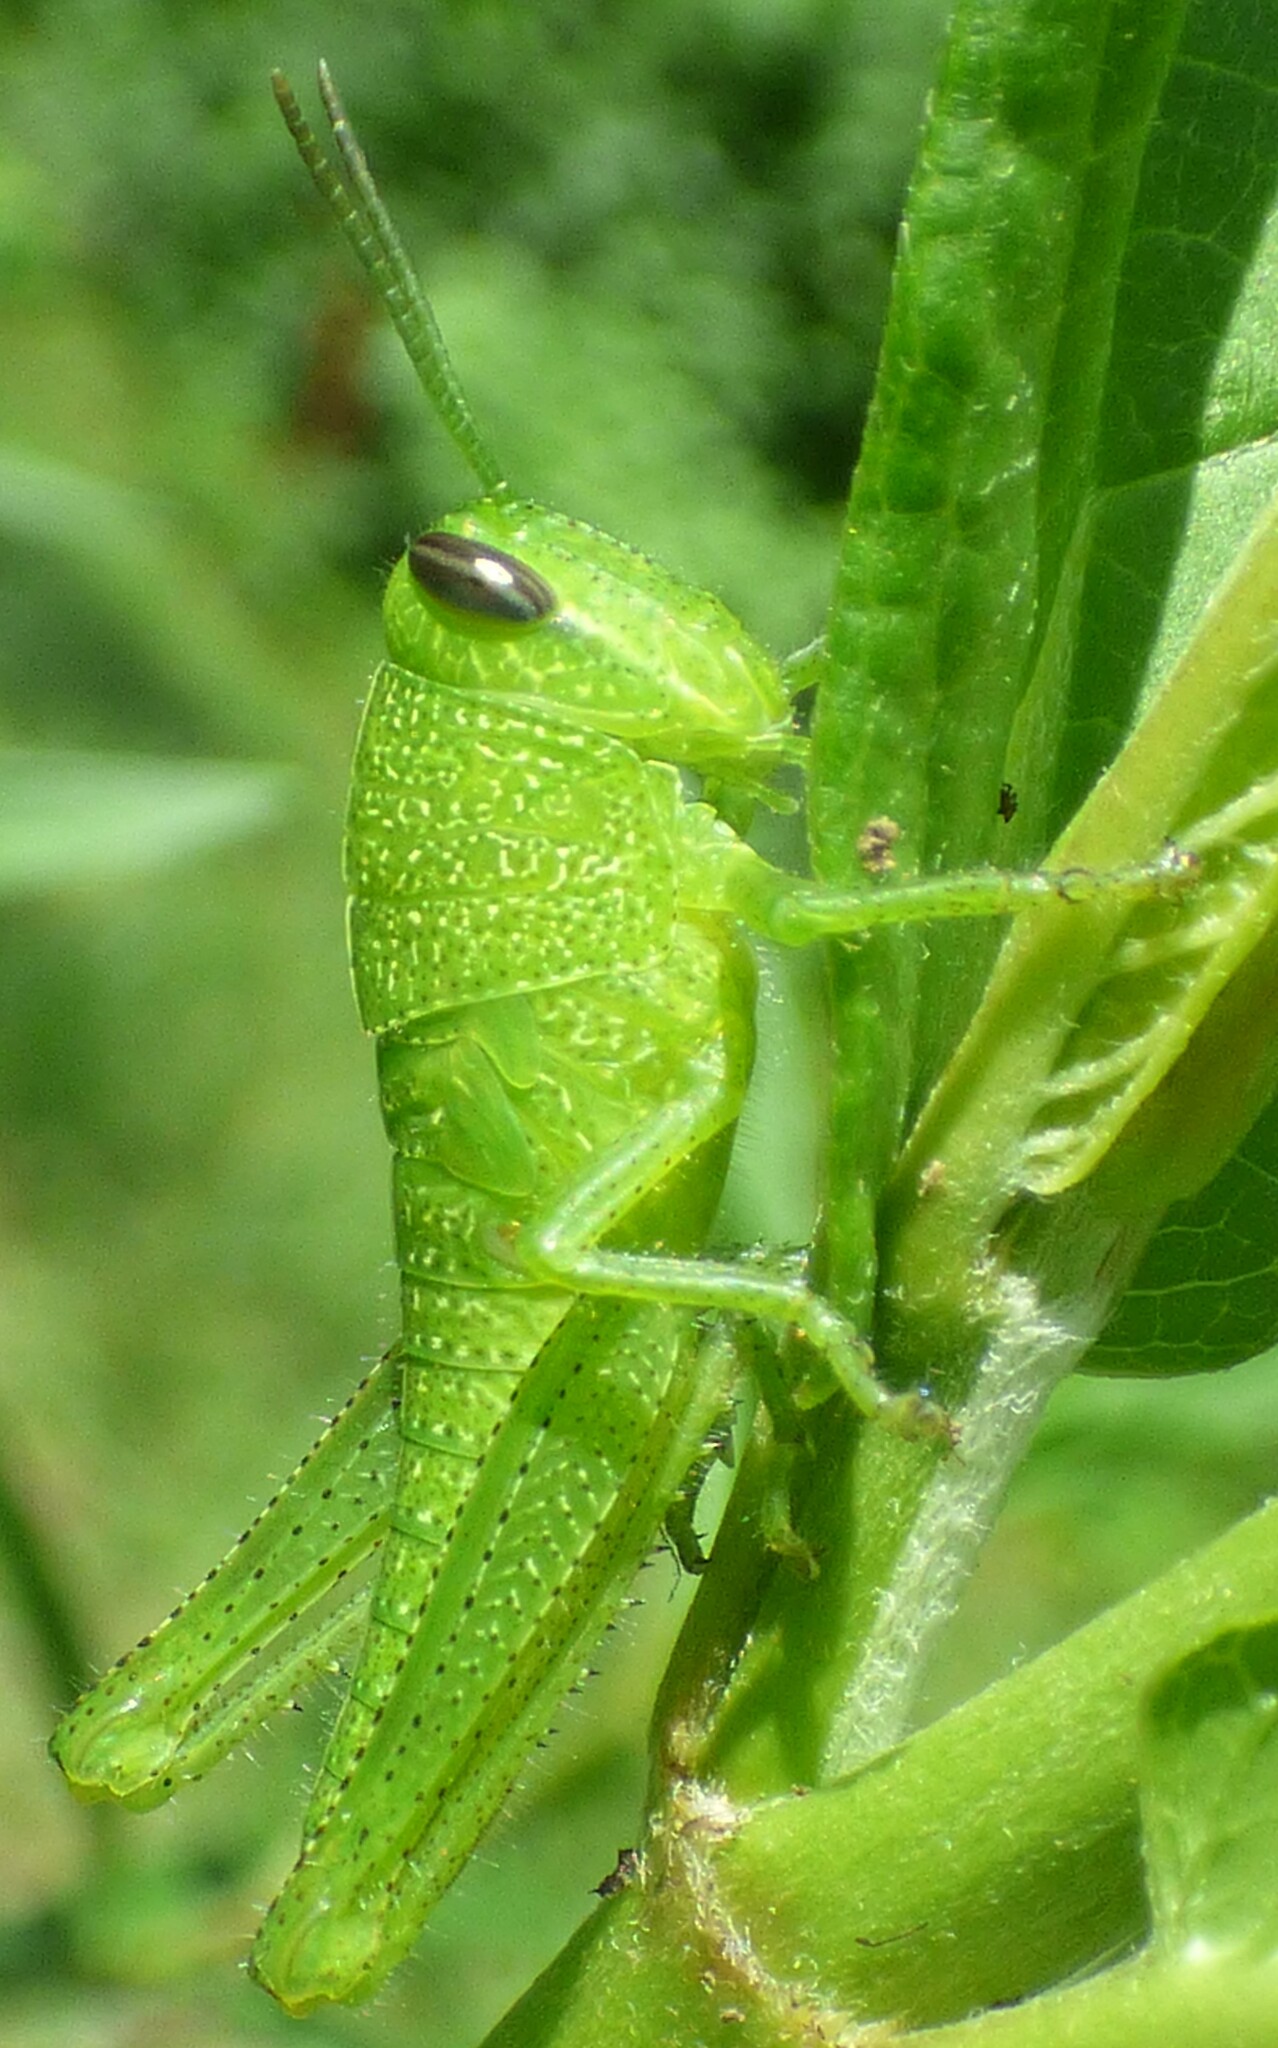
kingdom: Animalia
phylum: Arthropoda
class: Insecta
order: Orthoptera
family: Acrididae
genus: Schistocerca
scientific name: Schistocerca obscura
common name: Obscure bird grasshopper
